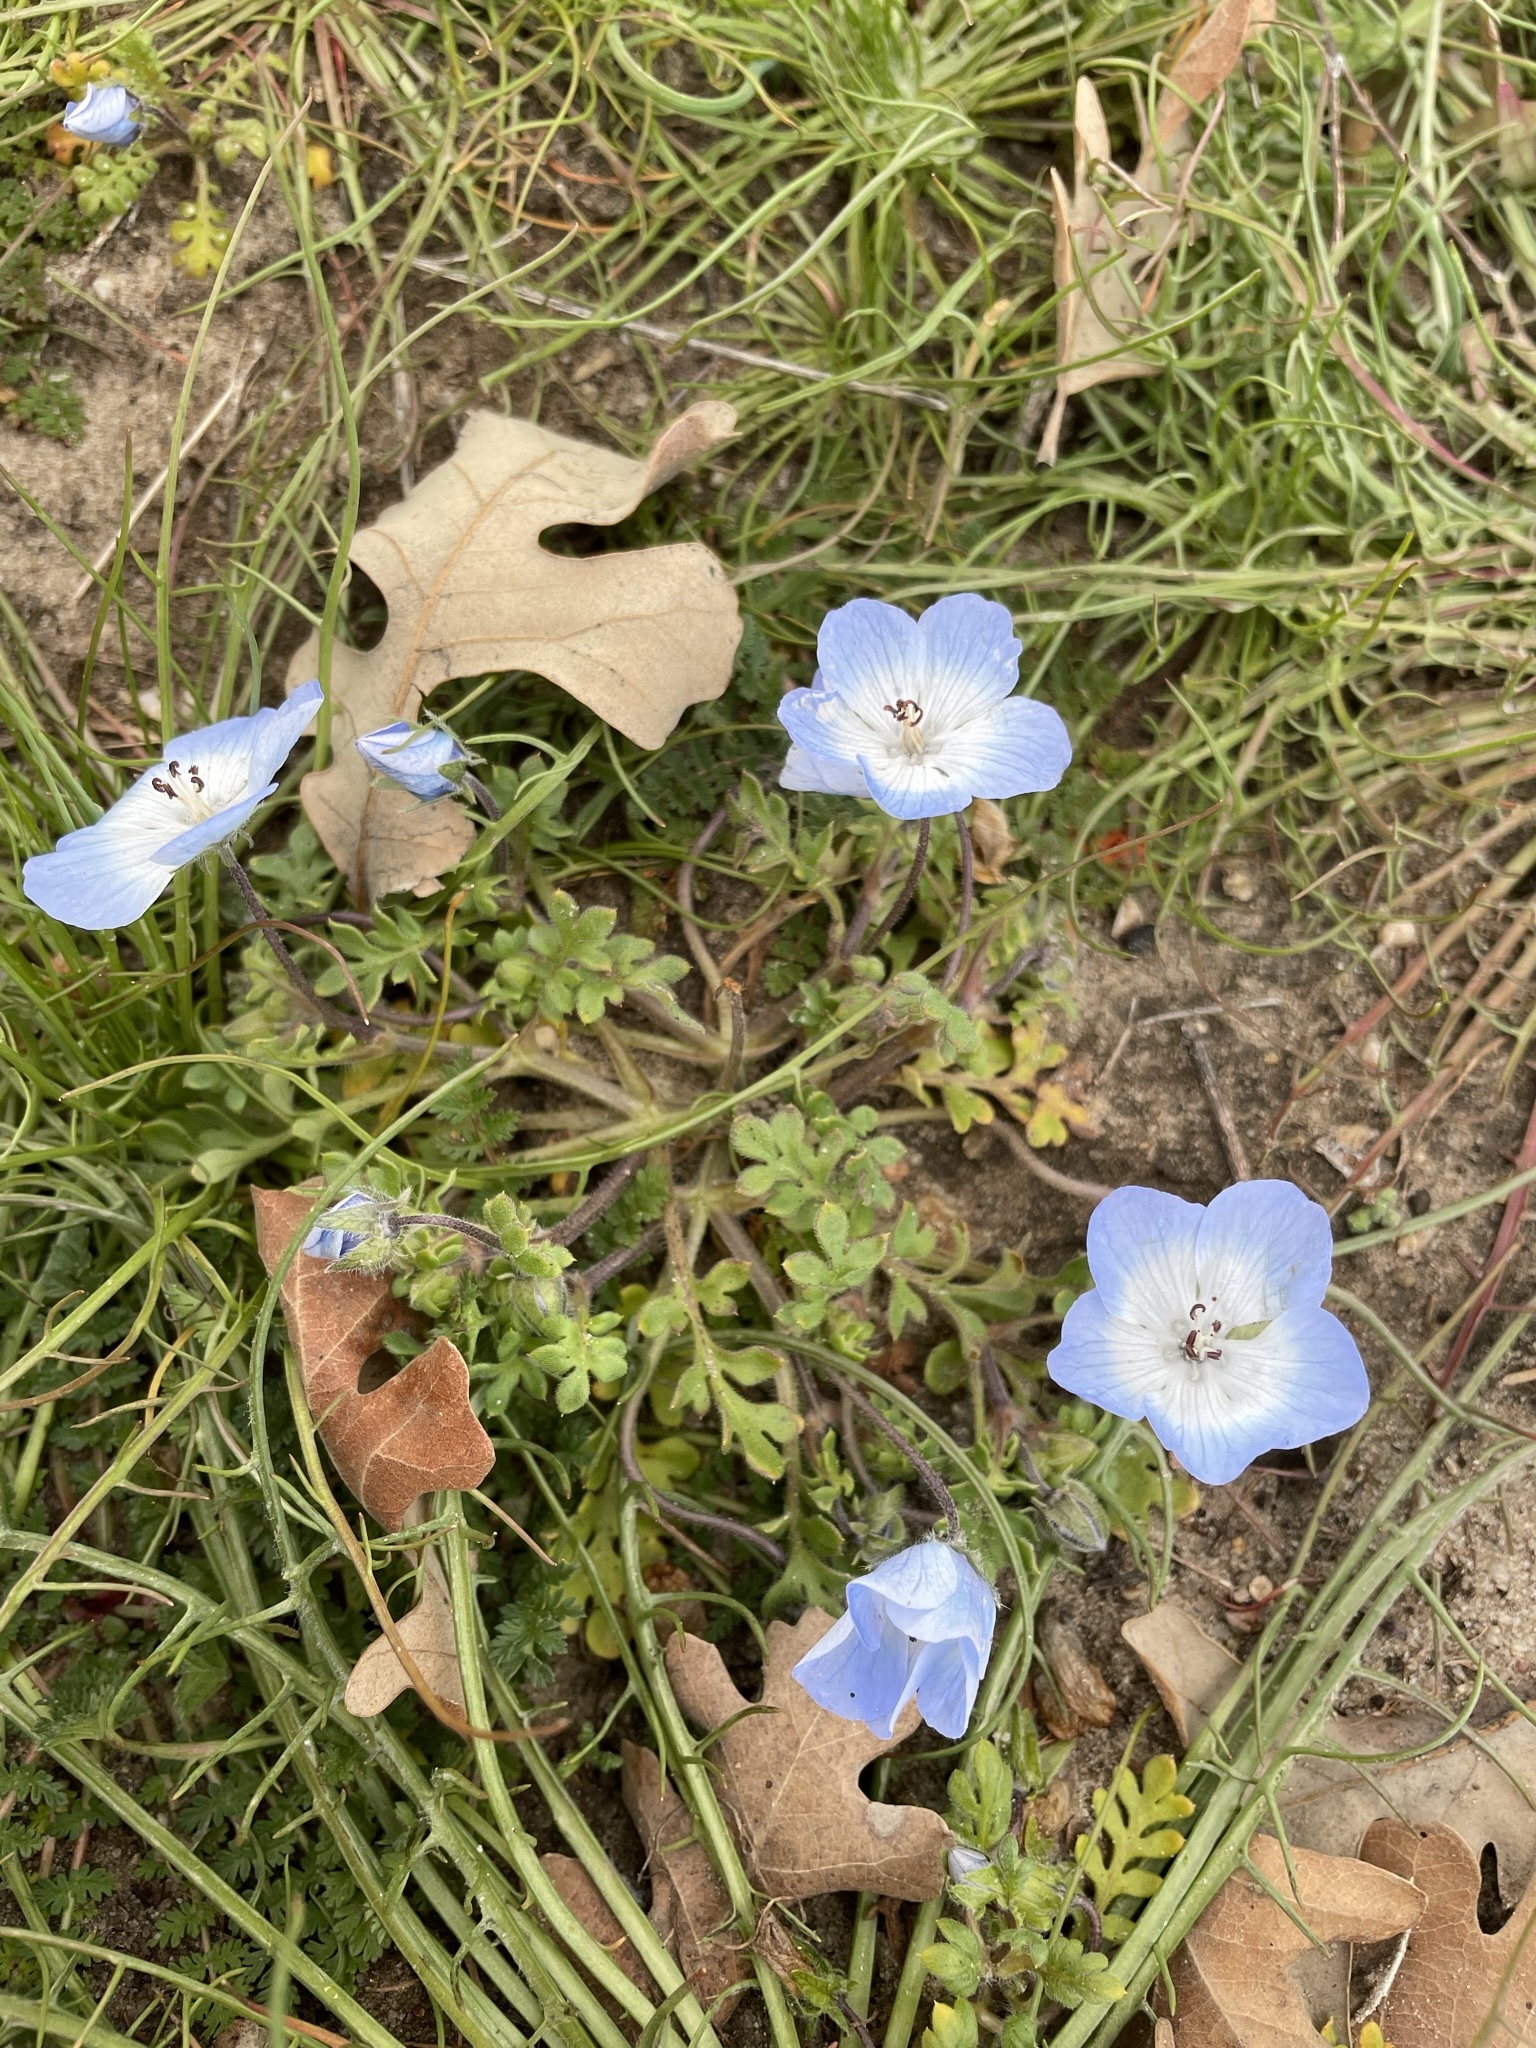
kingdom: Plantae
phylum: Tracheophyta
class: Magnoliopsida
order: Boraginales
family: Hydrophyllaceae
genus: Nemophila
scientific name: Nemophila menziesii
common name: Baby's-blue-eyes
